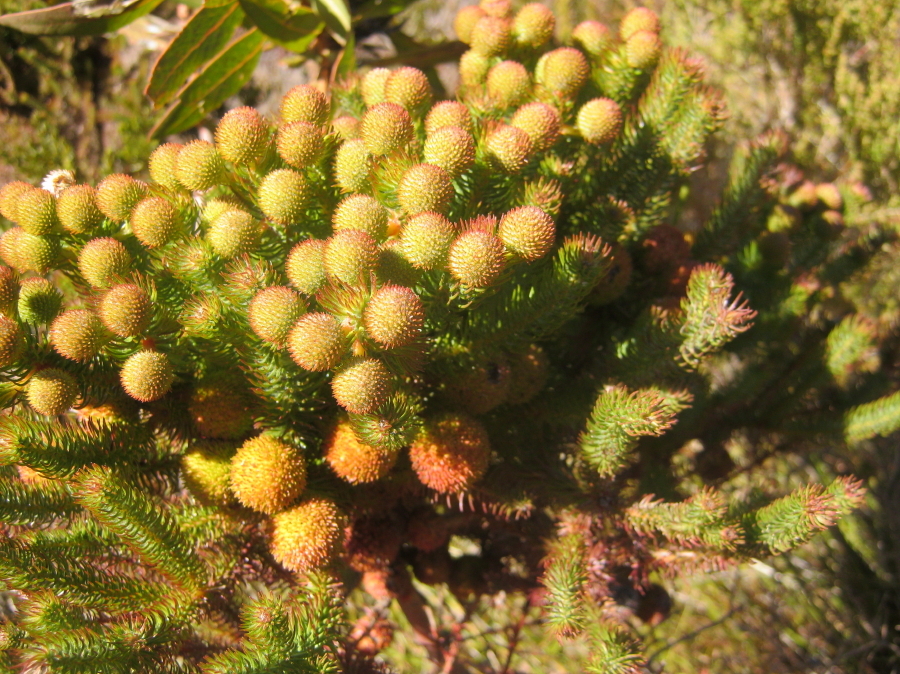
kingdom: Plantae
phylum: Tracheophyta
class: Magnoliopsida
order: Bruniales
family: Bruniaceae
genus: Berzelia
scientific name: Berzelia abrotanoides
